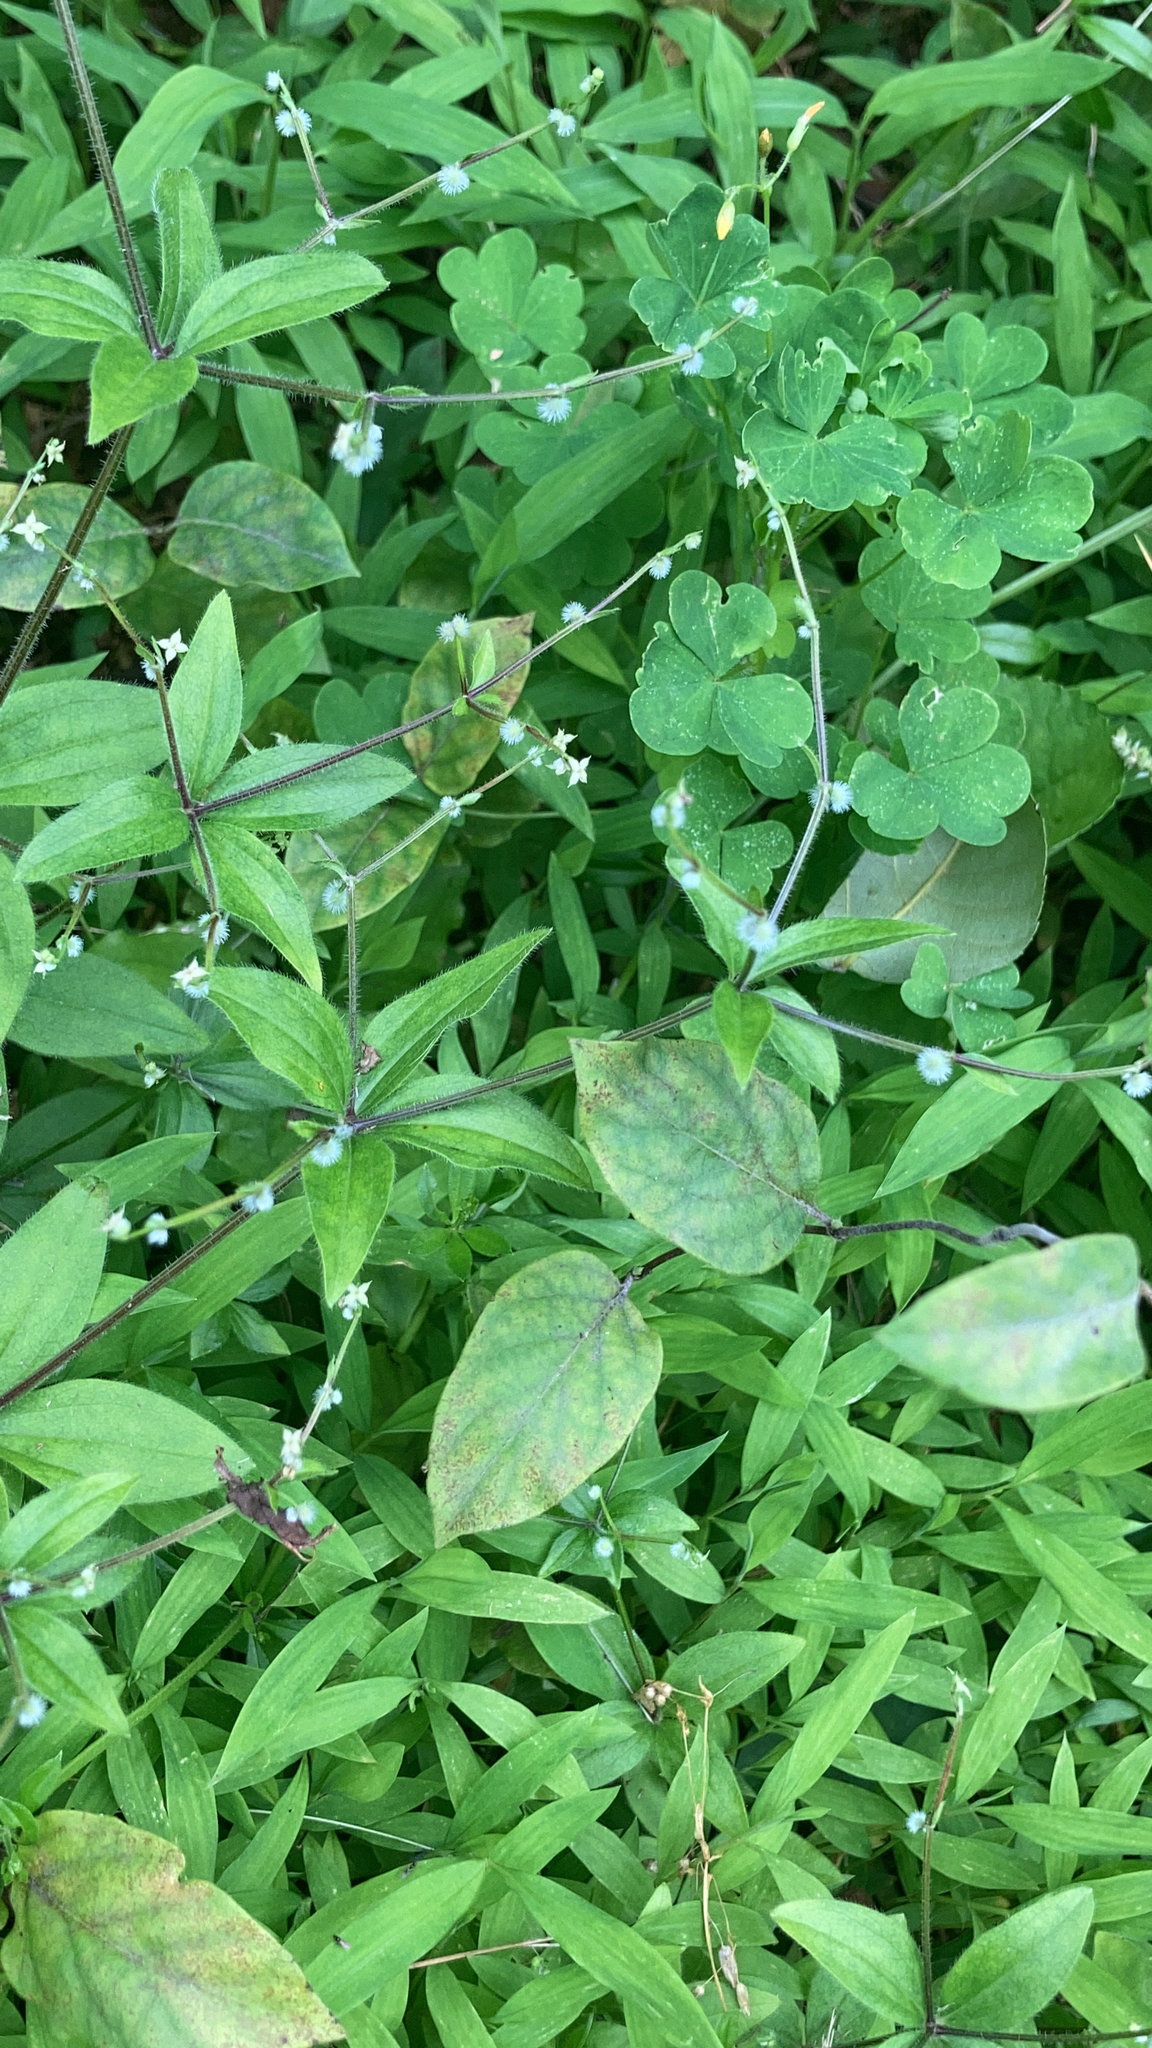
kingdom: Plantae
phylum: Tracheophyta
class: Magnoliopsida
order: Gentianales
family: Rubiaceae
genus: Galium
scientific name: Galium circaezans
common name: Forest bedstraw
